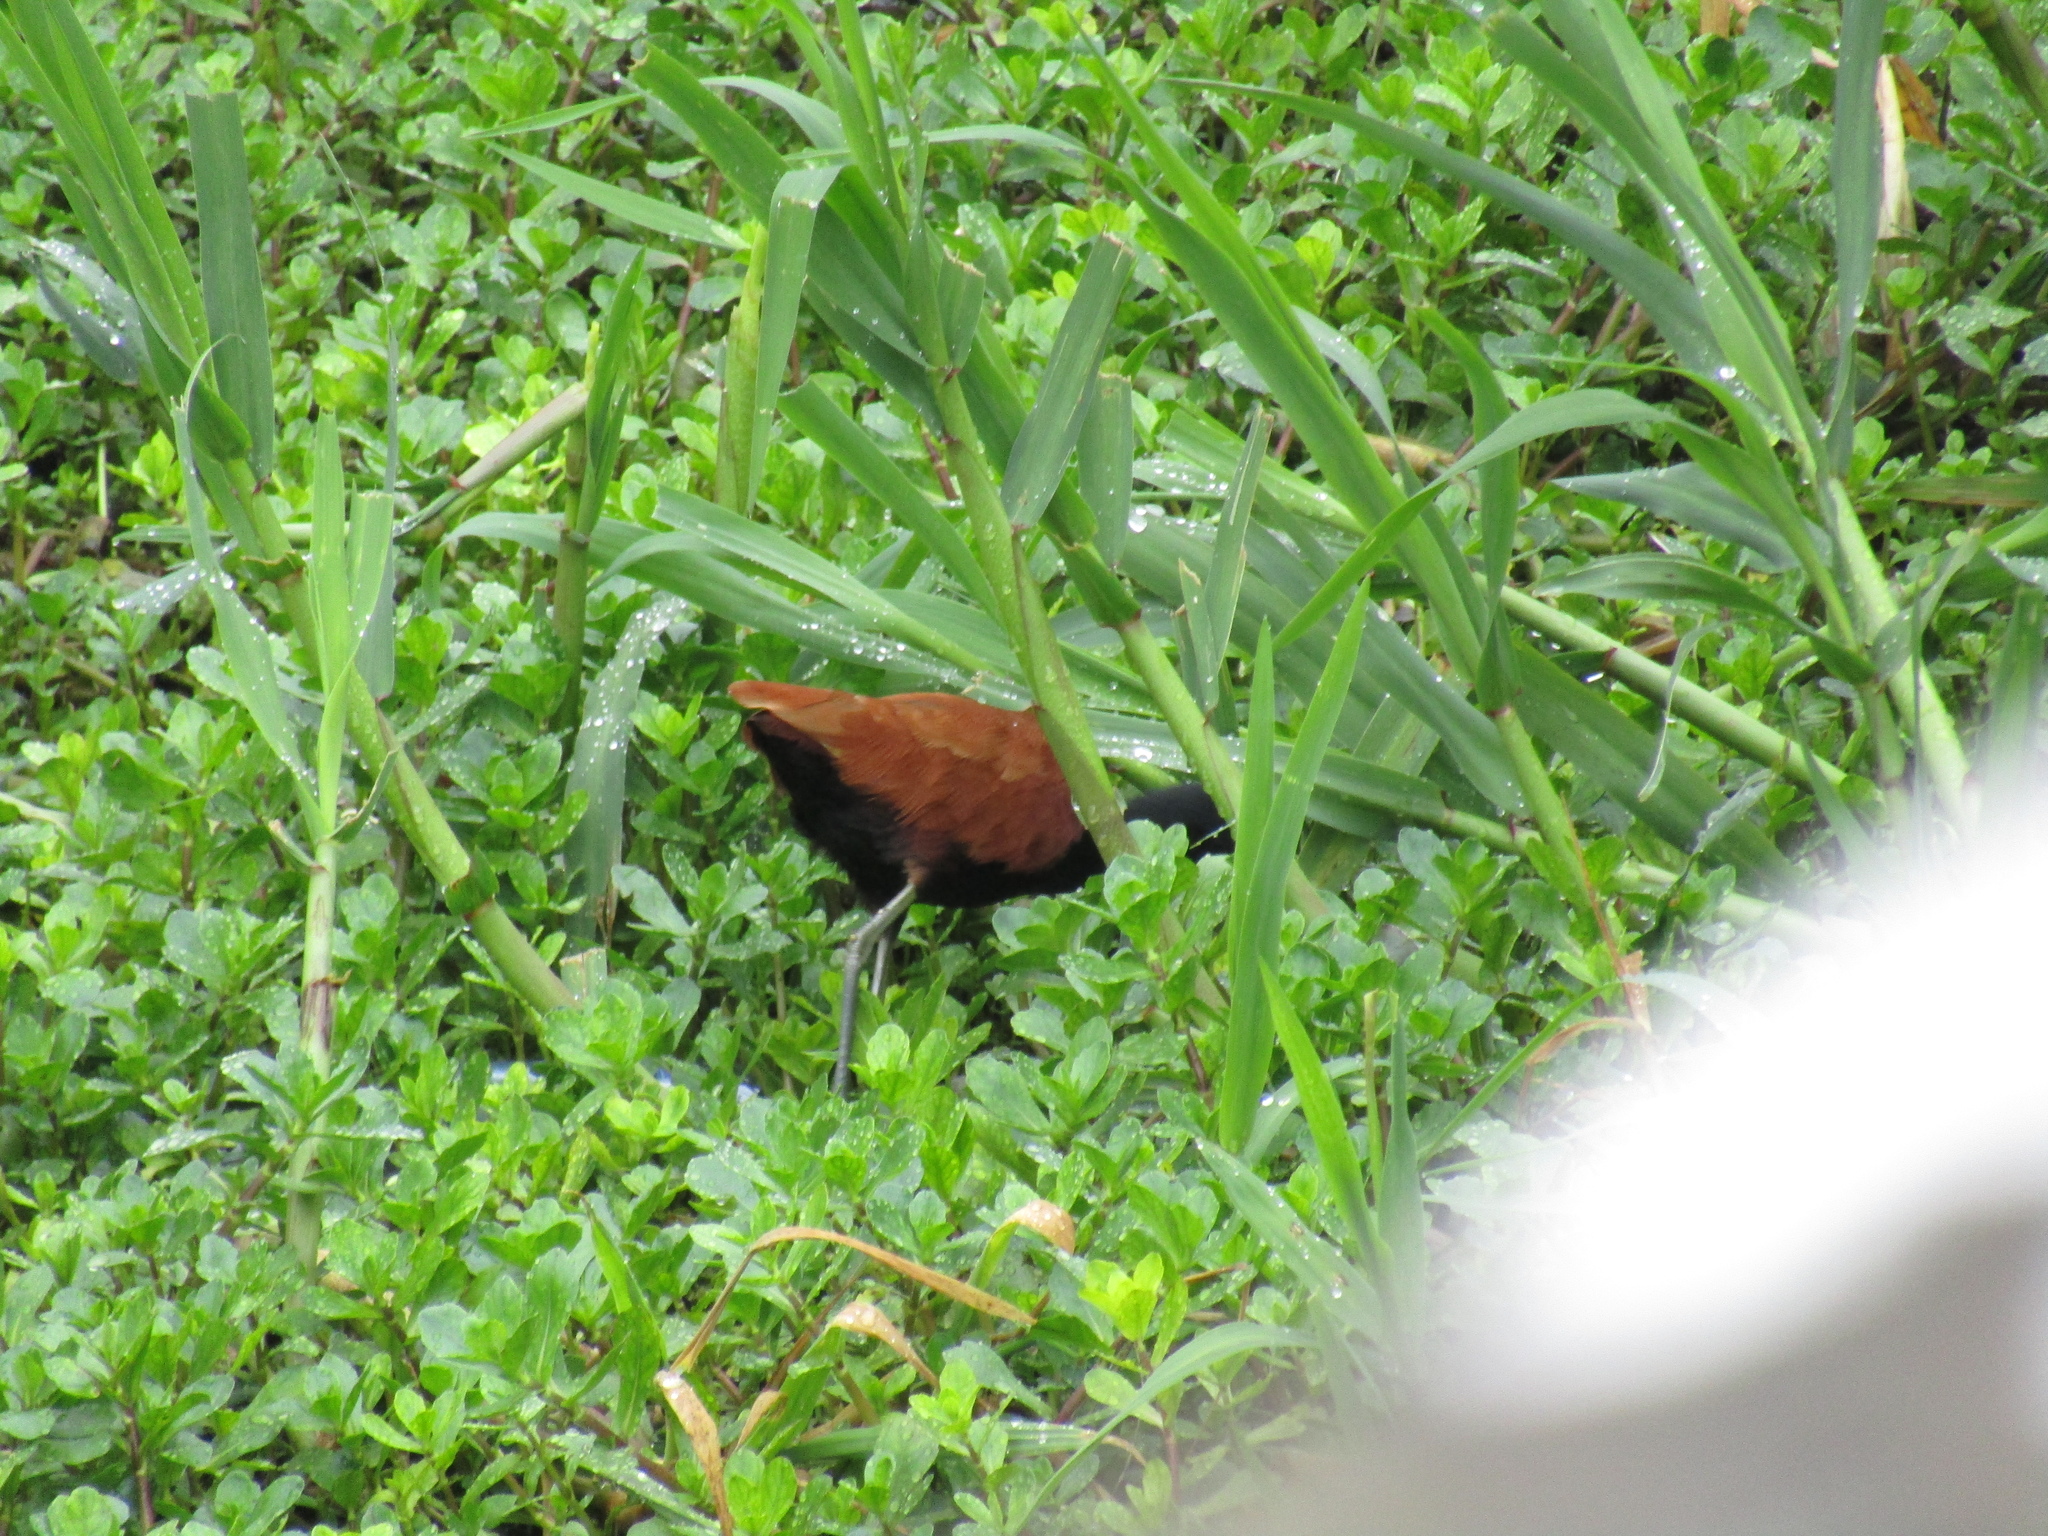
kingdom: Animalia
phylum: Chordata
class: Aves
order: Charadriiformes
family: Jacanidae
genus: Jacana
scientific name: Jacana jacana
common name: Wattled jacana
